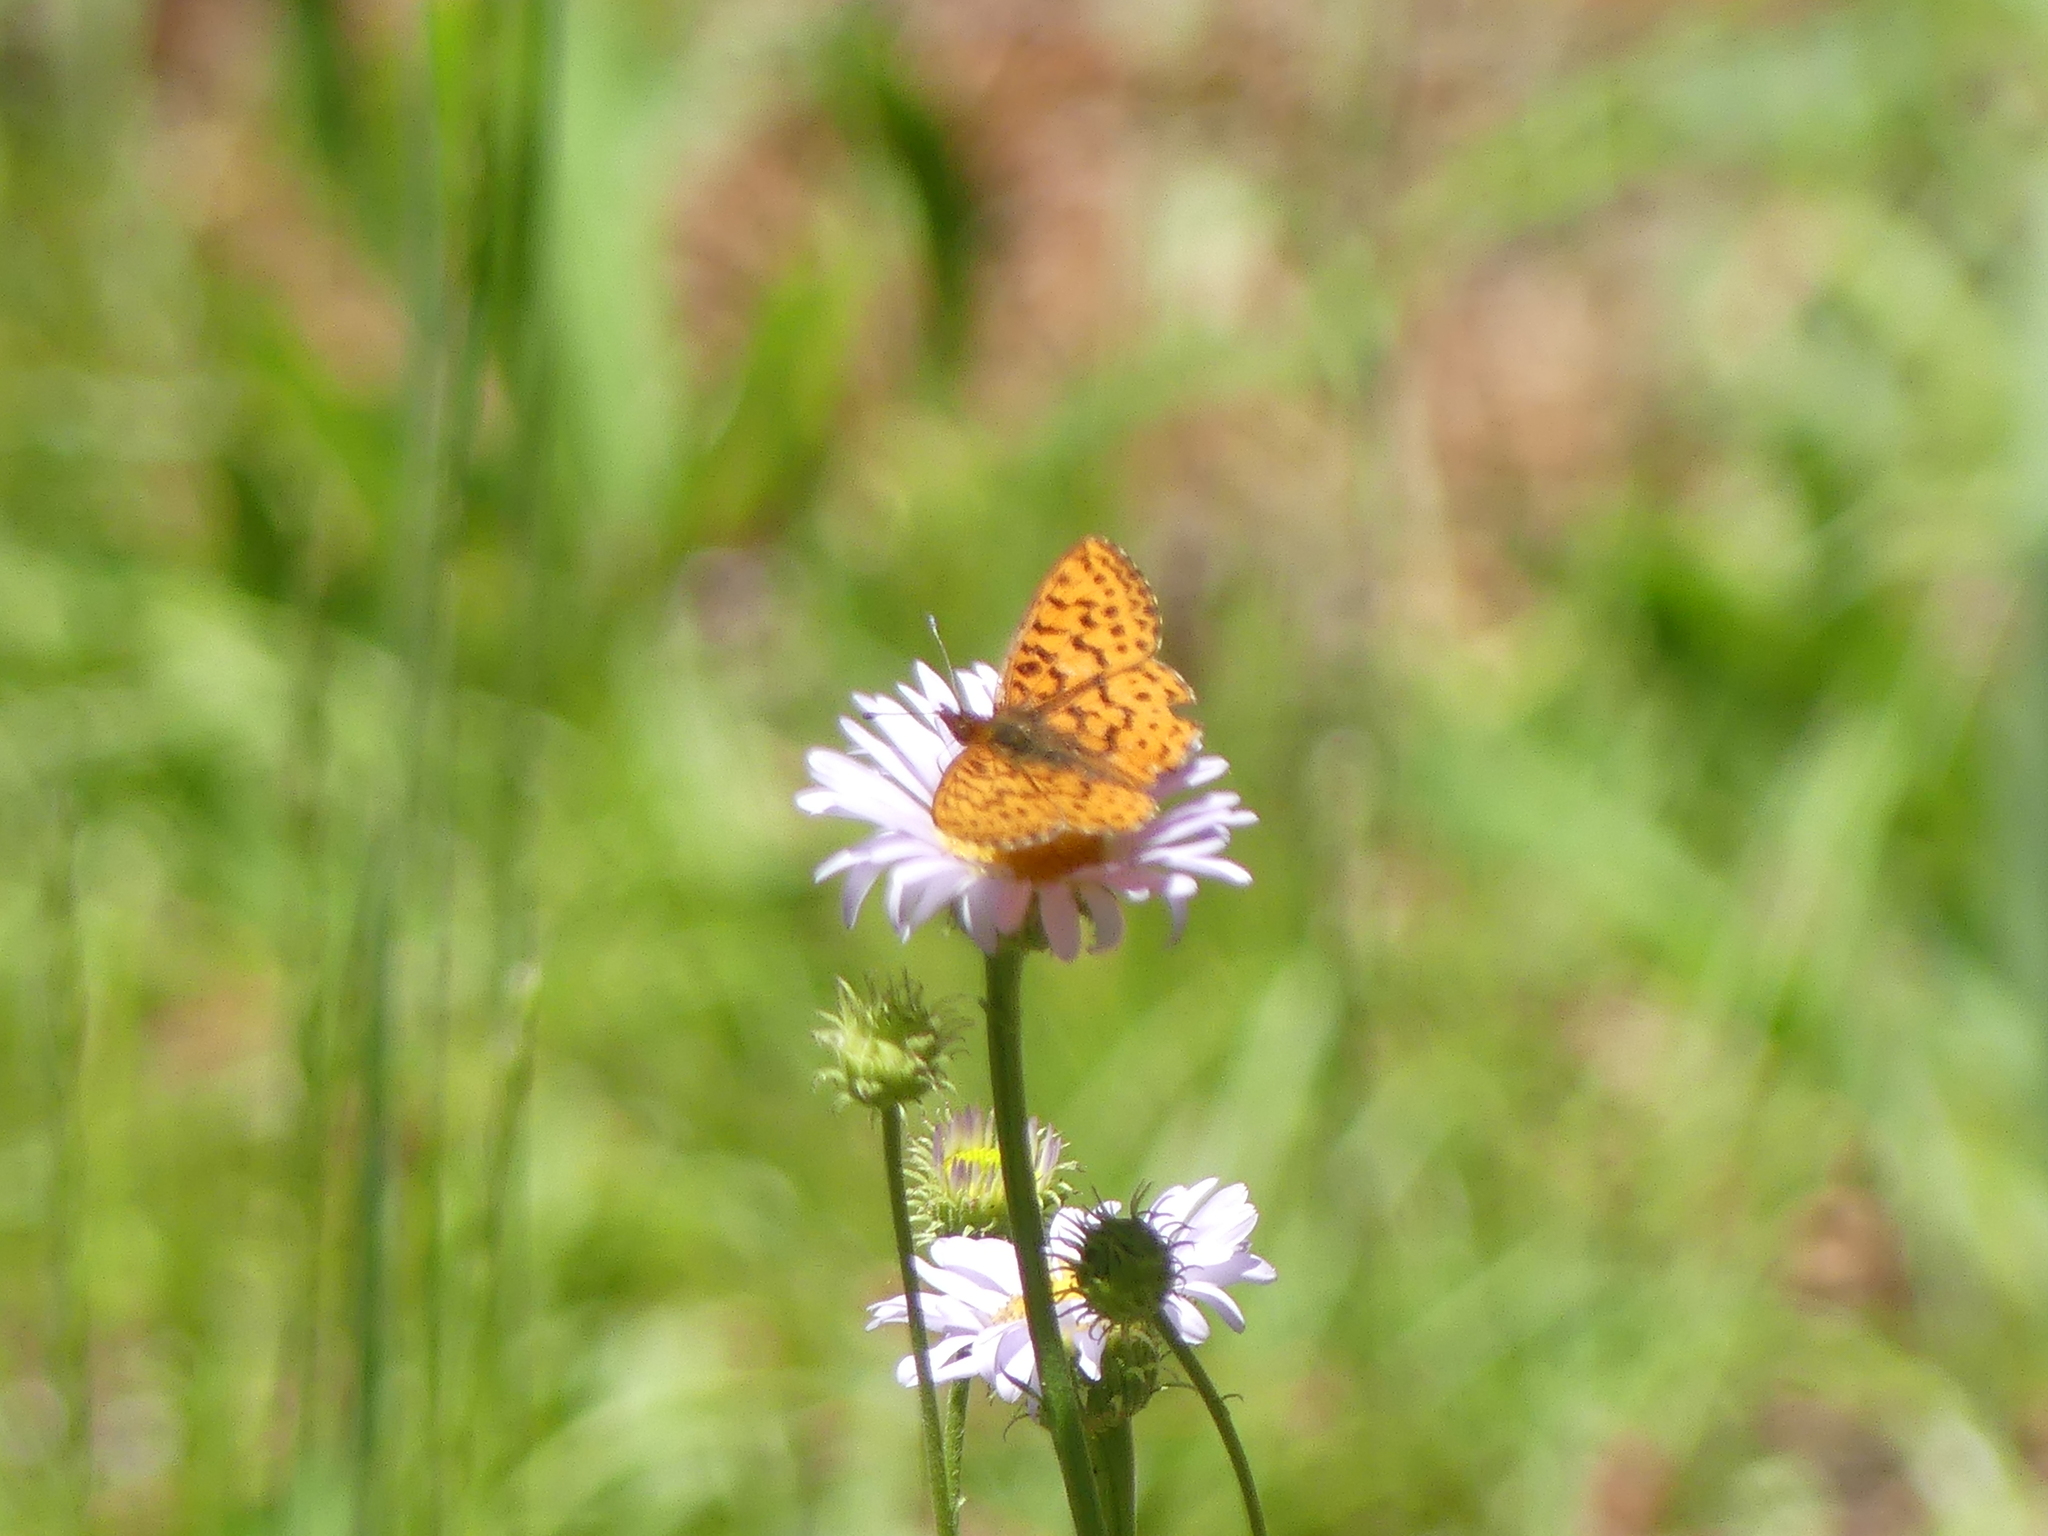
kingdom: Animalia
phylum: Arthropoda
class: Insecta
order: Lepidoptera
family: Nymphalidae
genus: Boloria
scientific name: Boloria epithore
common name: Pacific fritillary
